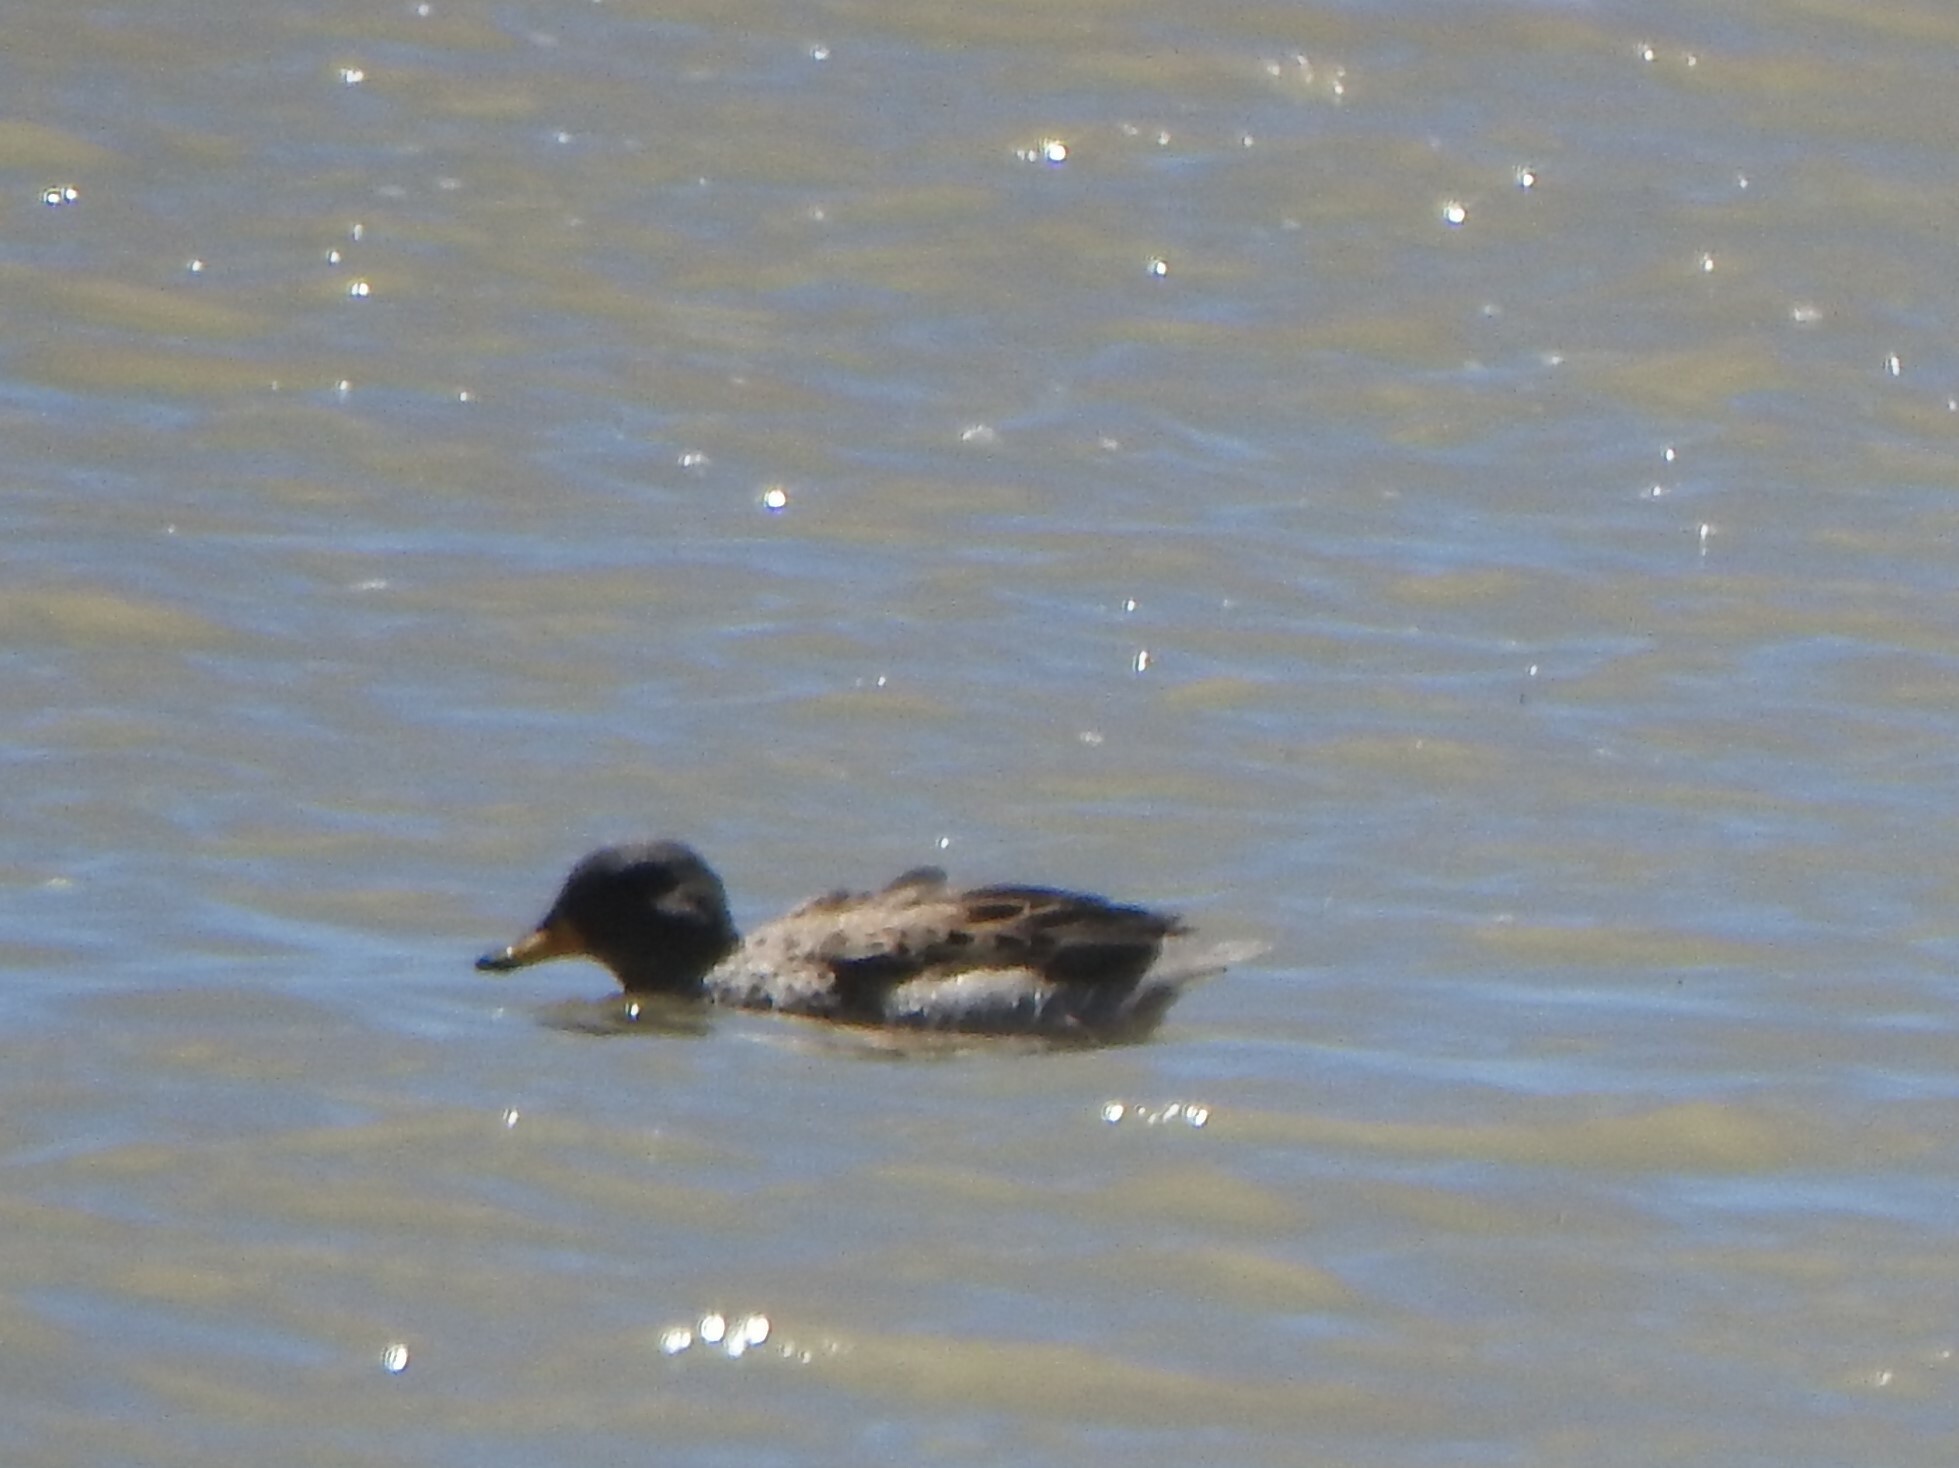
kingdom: Animalia
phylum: Chordata
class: Aves
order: Anseriformes
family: Anatidae
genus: Anas
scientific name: Anas flavirostris
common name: Yellow-billed teal
